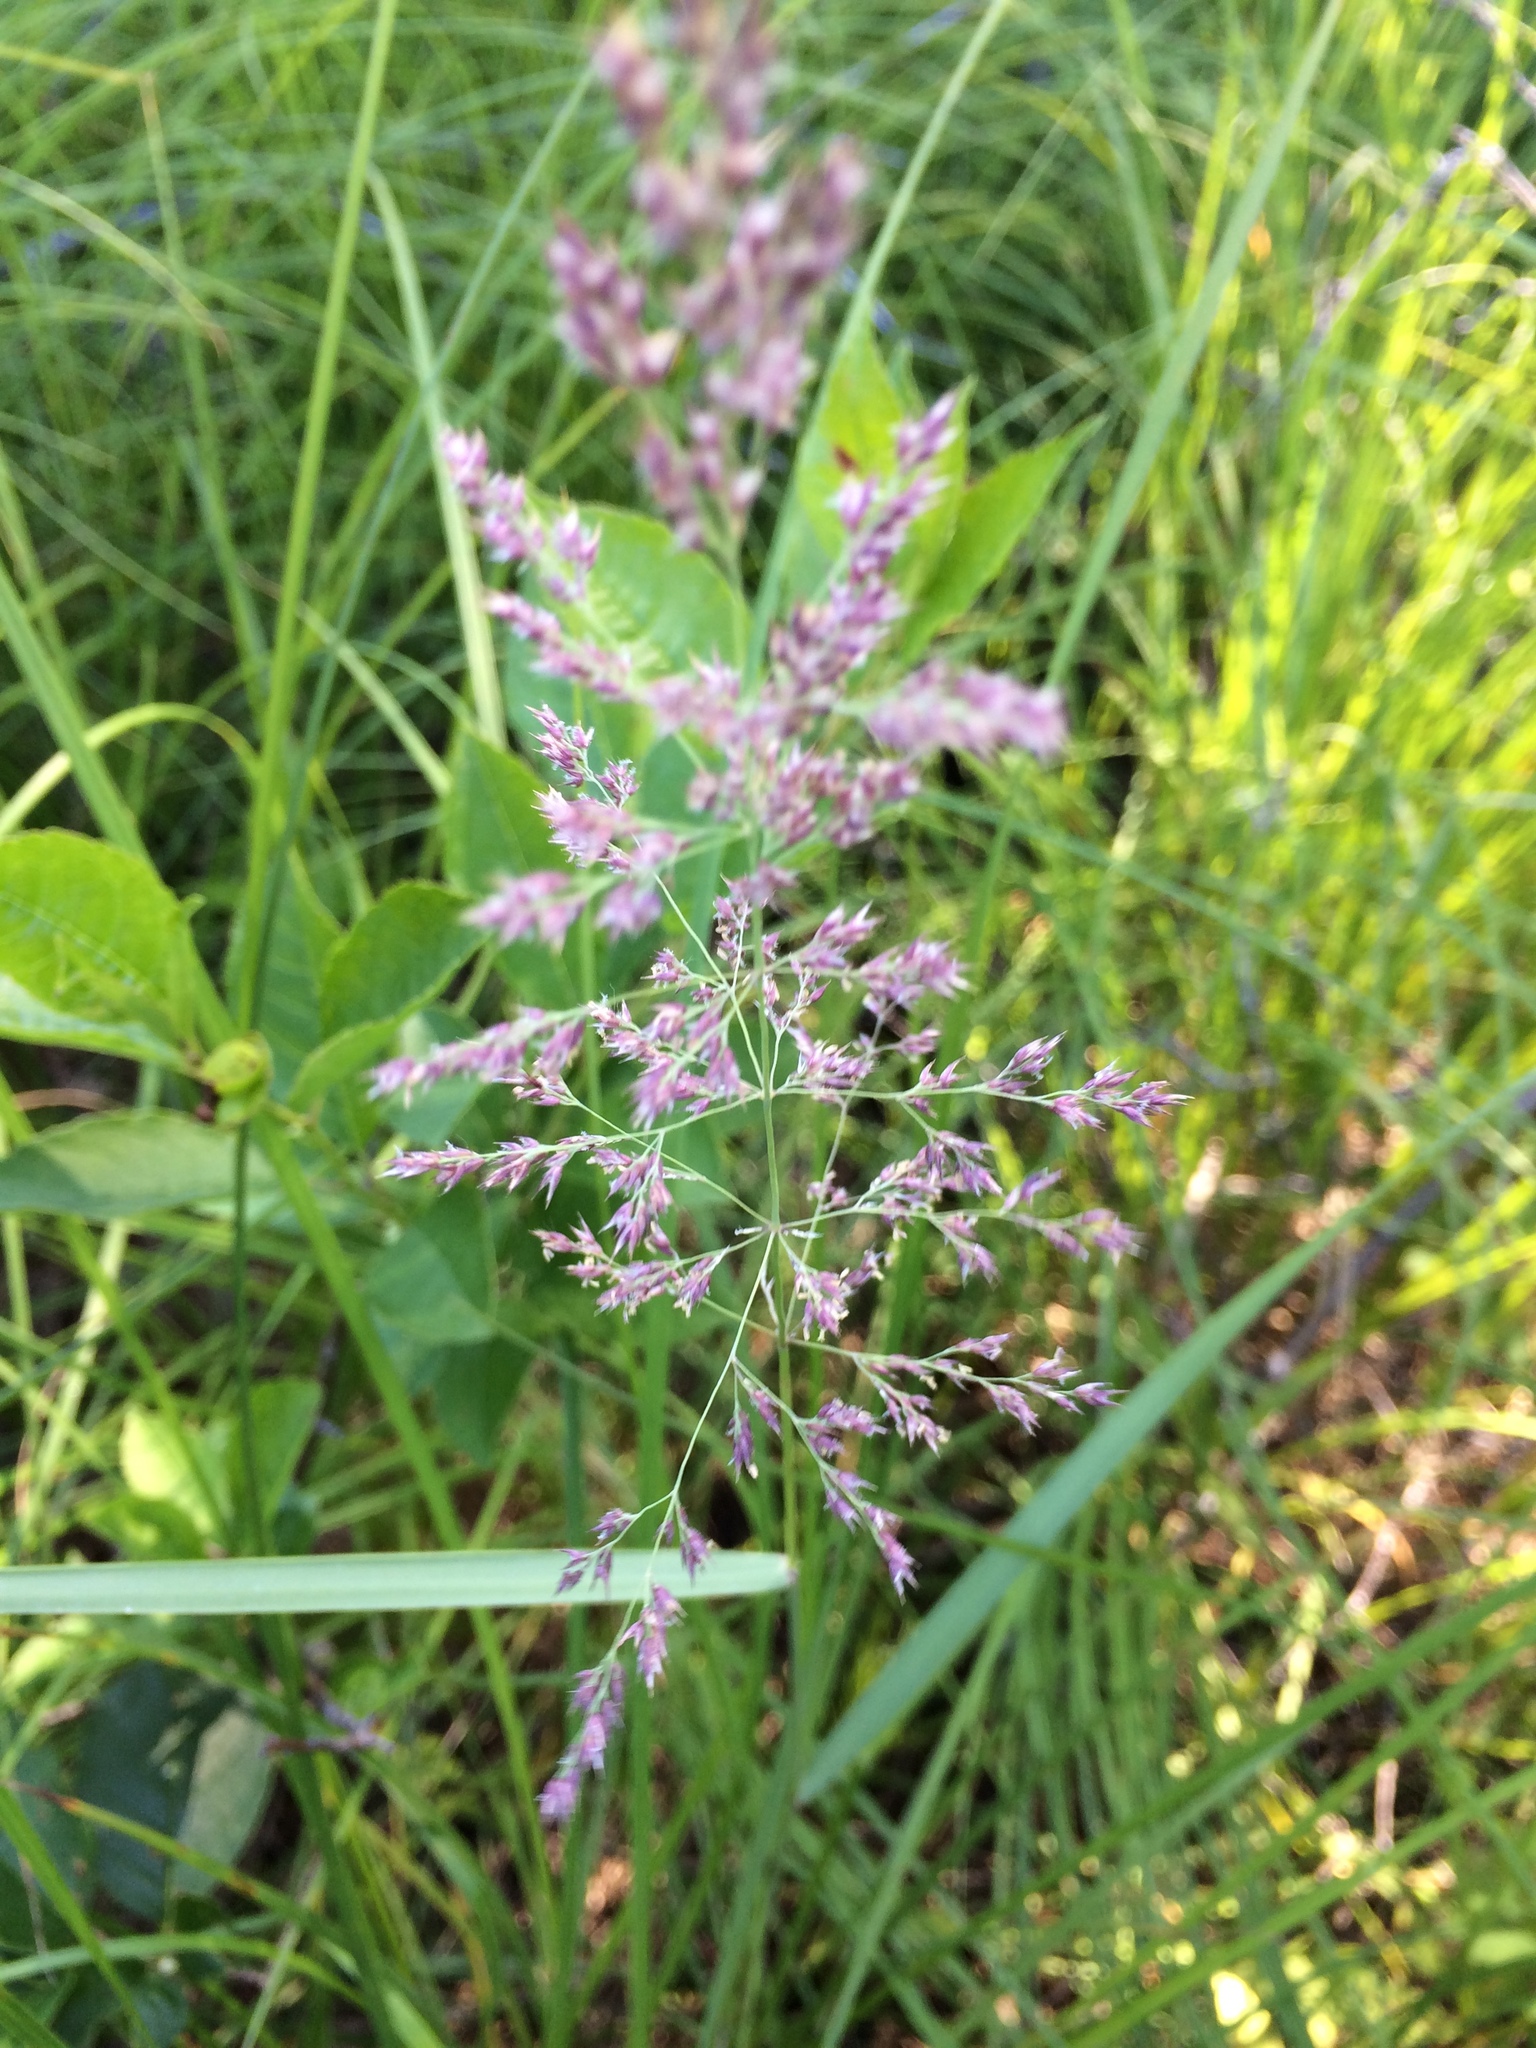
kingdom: Plantae
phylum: Tracheophyta
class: Liliopsida
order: Poales
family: Poaceae
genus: Calamagrostis
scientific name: Calamagrostis canadensis
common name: Canada bluejoint
